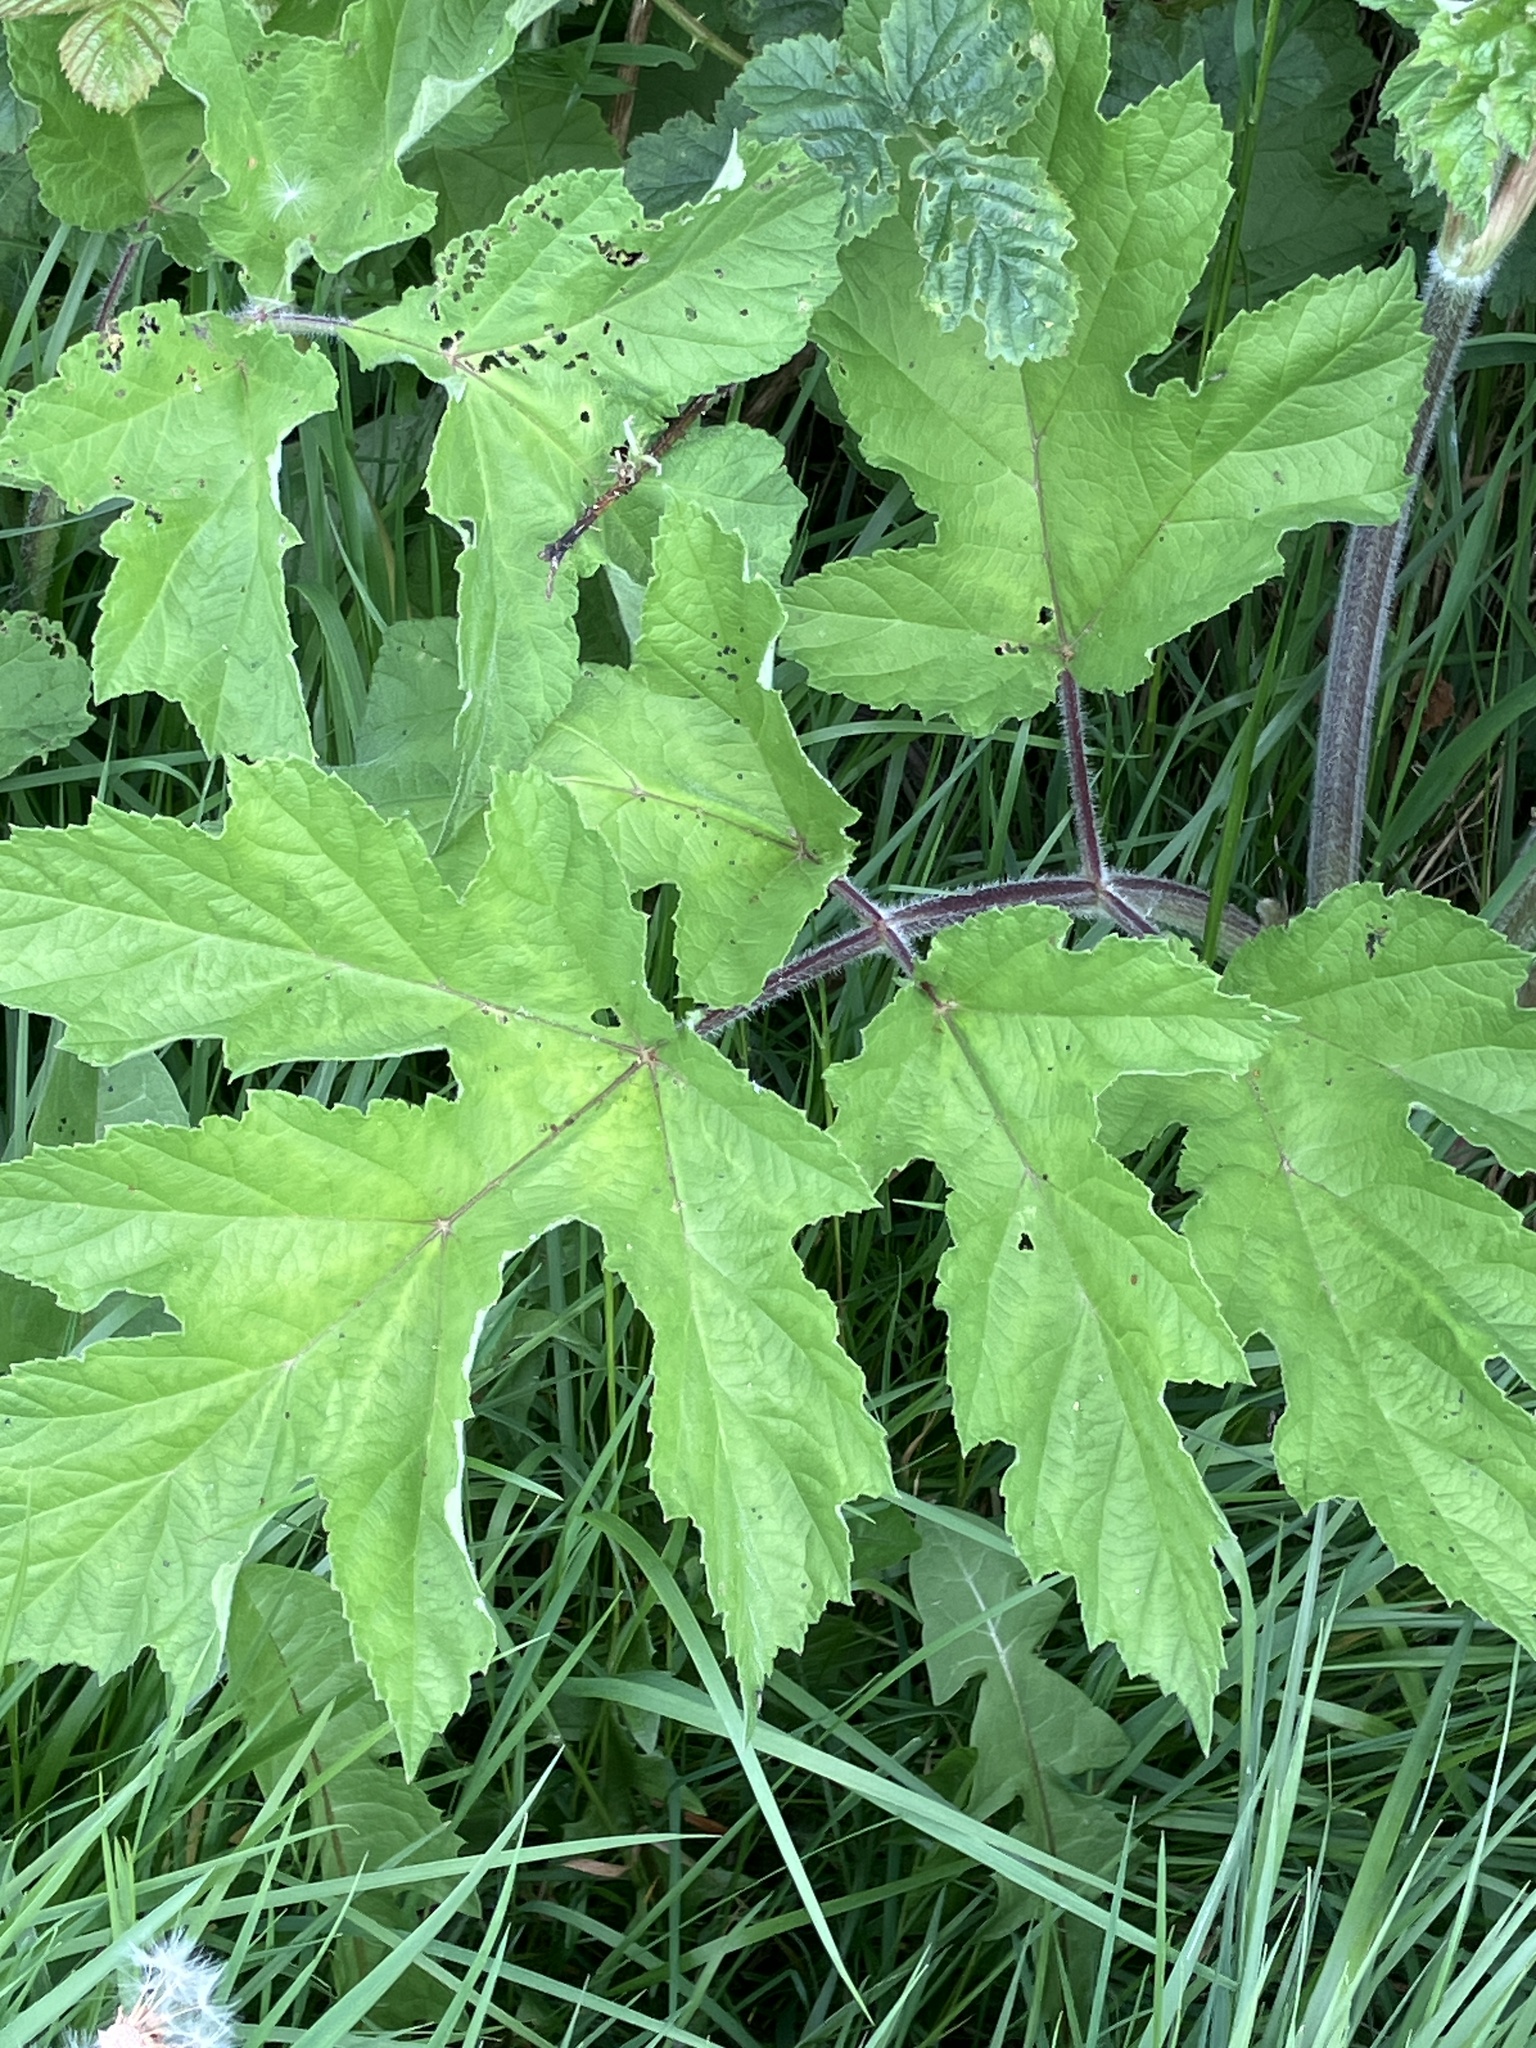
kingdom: Plantae
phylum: Tracheophyta
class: Magnoliopsida
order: Apiales
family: Apiaceae
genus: Heracleum
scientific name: Heracleum sphondylium
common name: Hogweed
